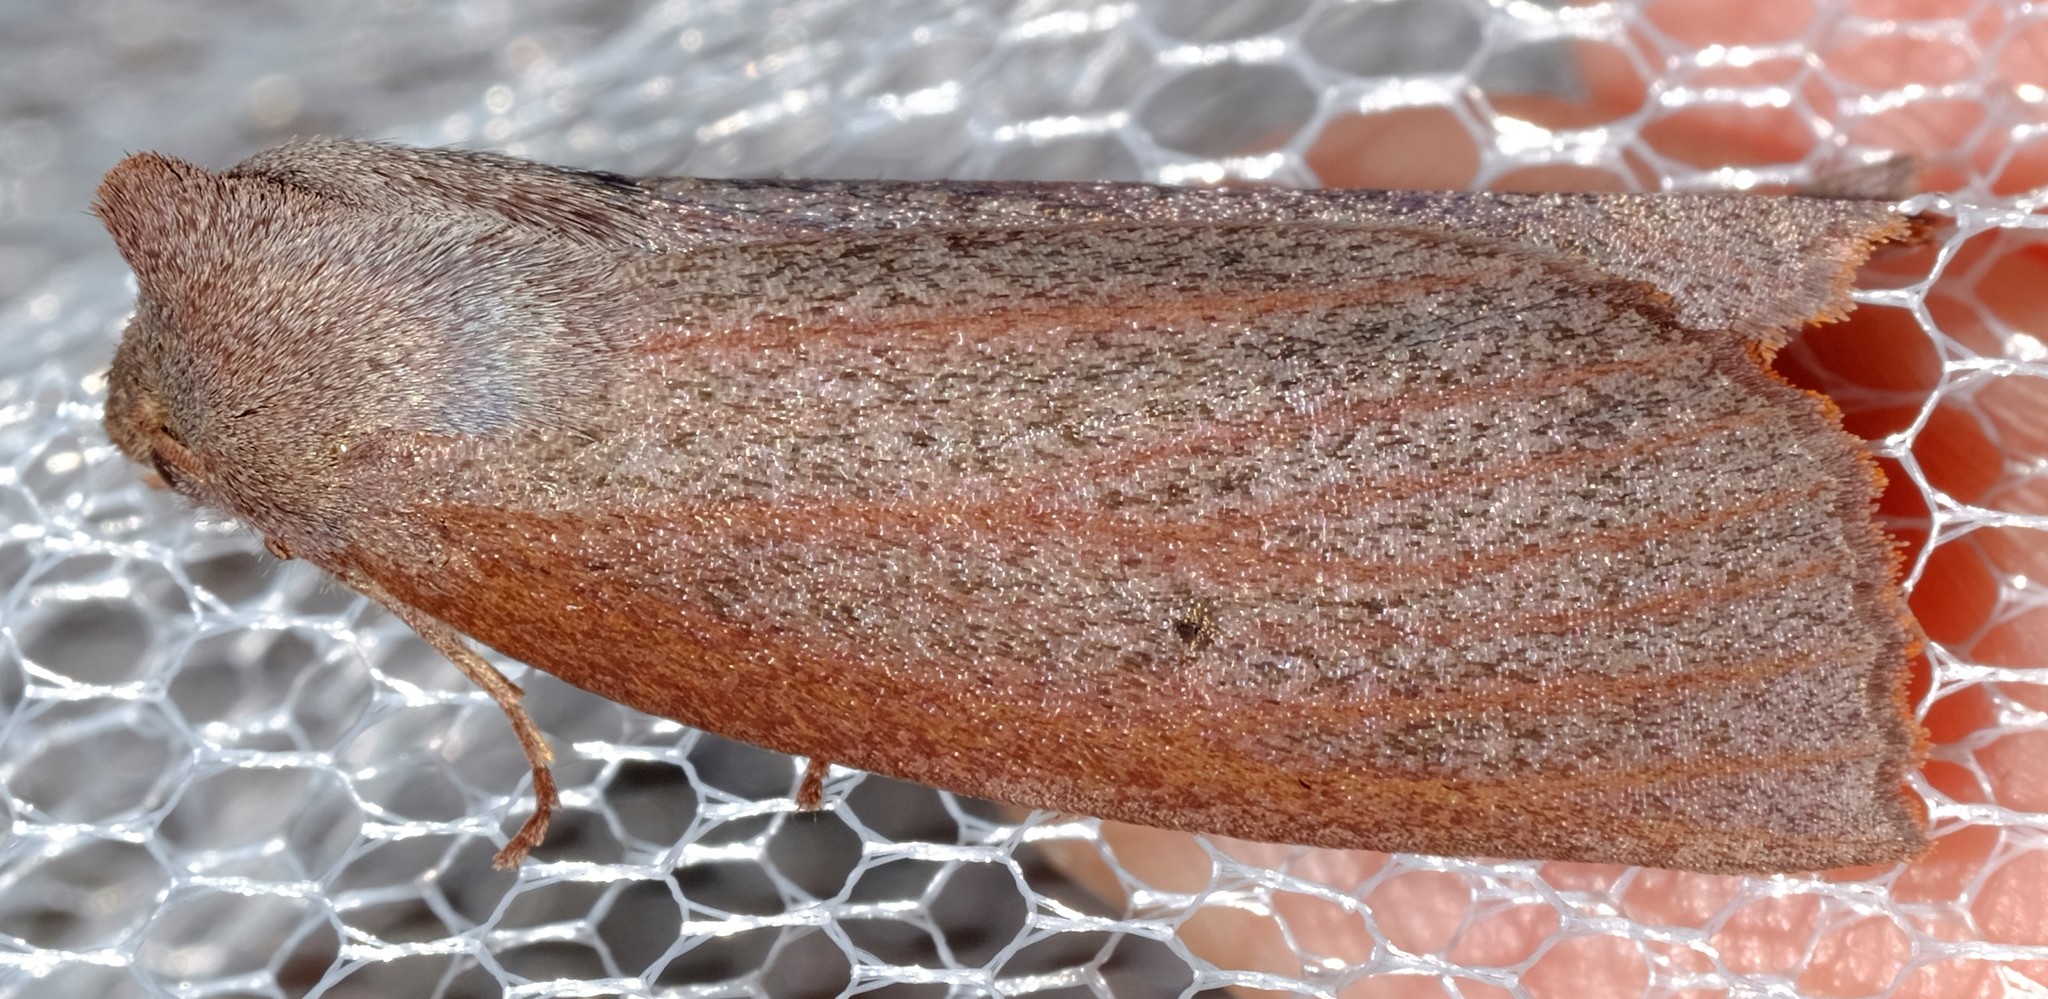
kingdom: Animalia
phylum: Arthropoda
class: Insecta
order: Lepidoptera
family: Geometridae
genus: Paralaea
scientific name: Paralaea porphyrinaria
